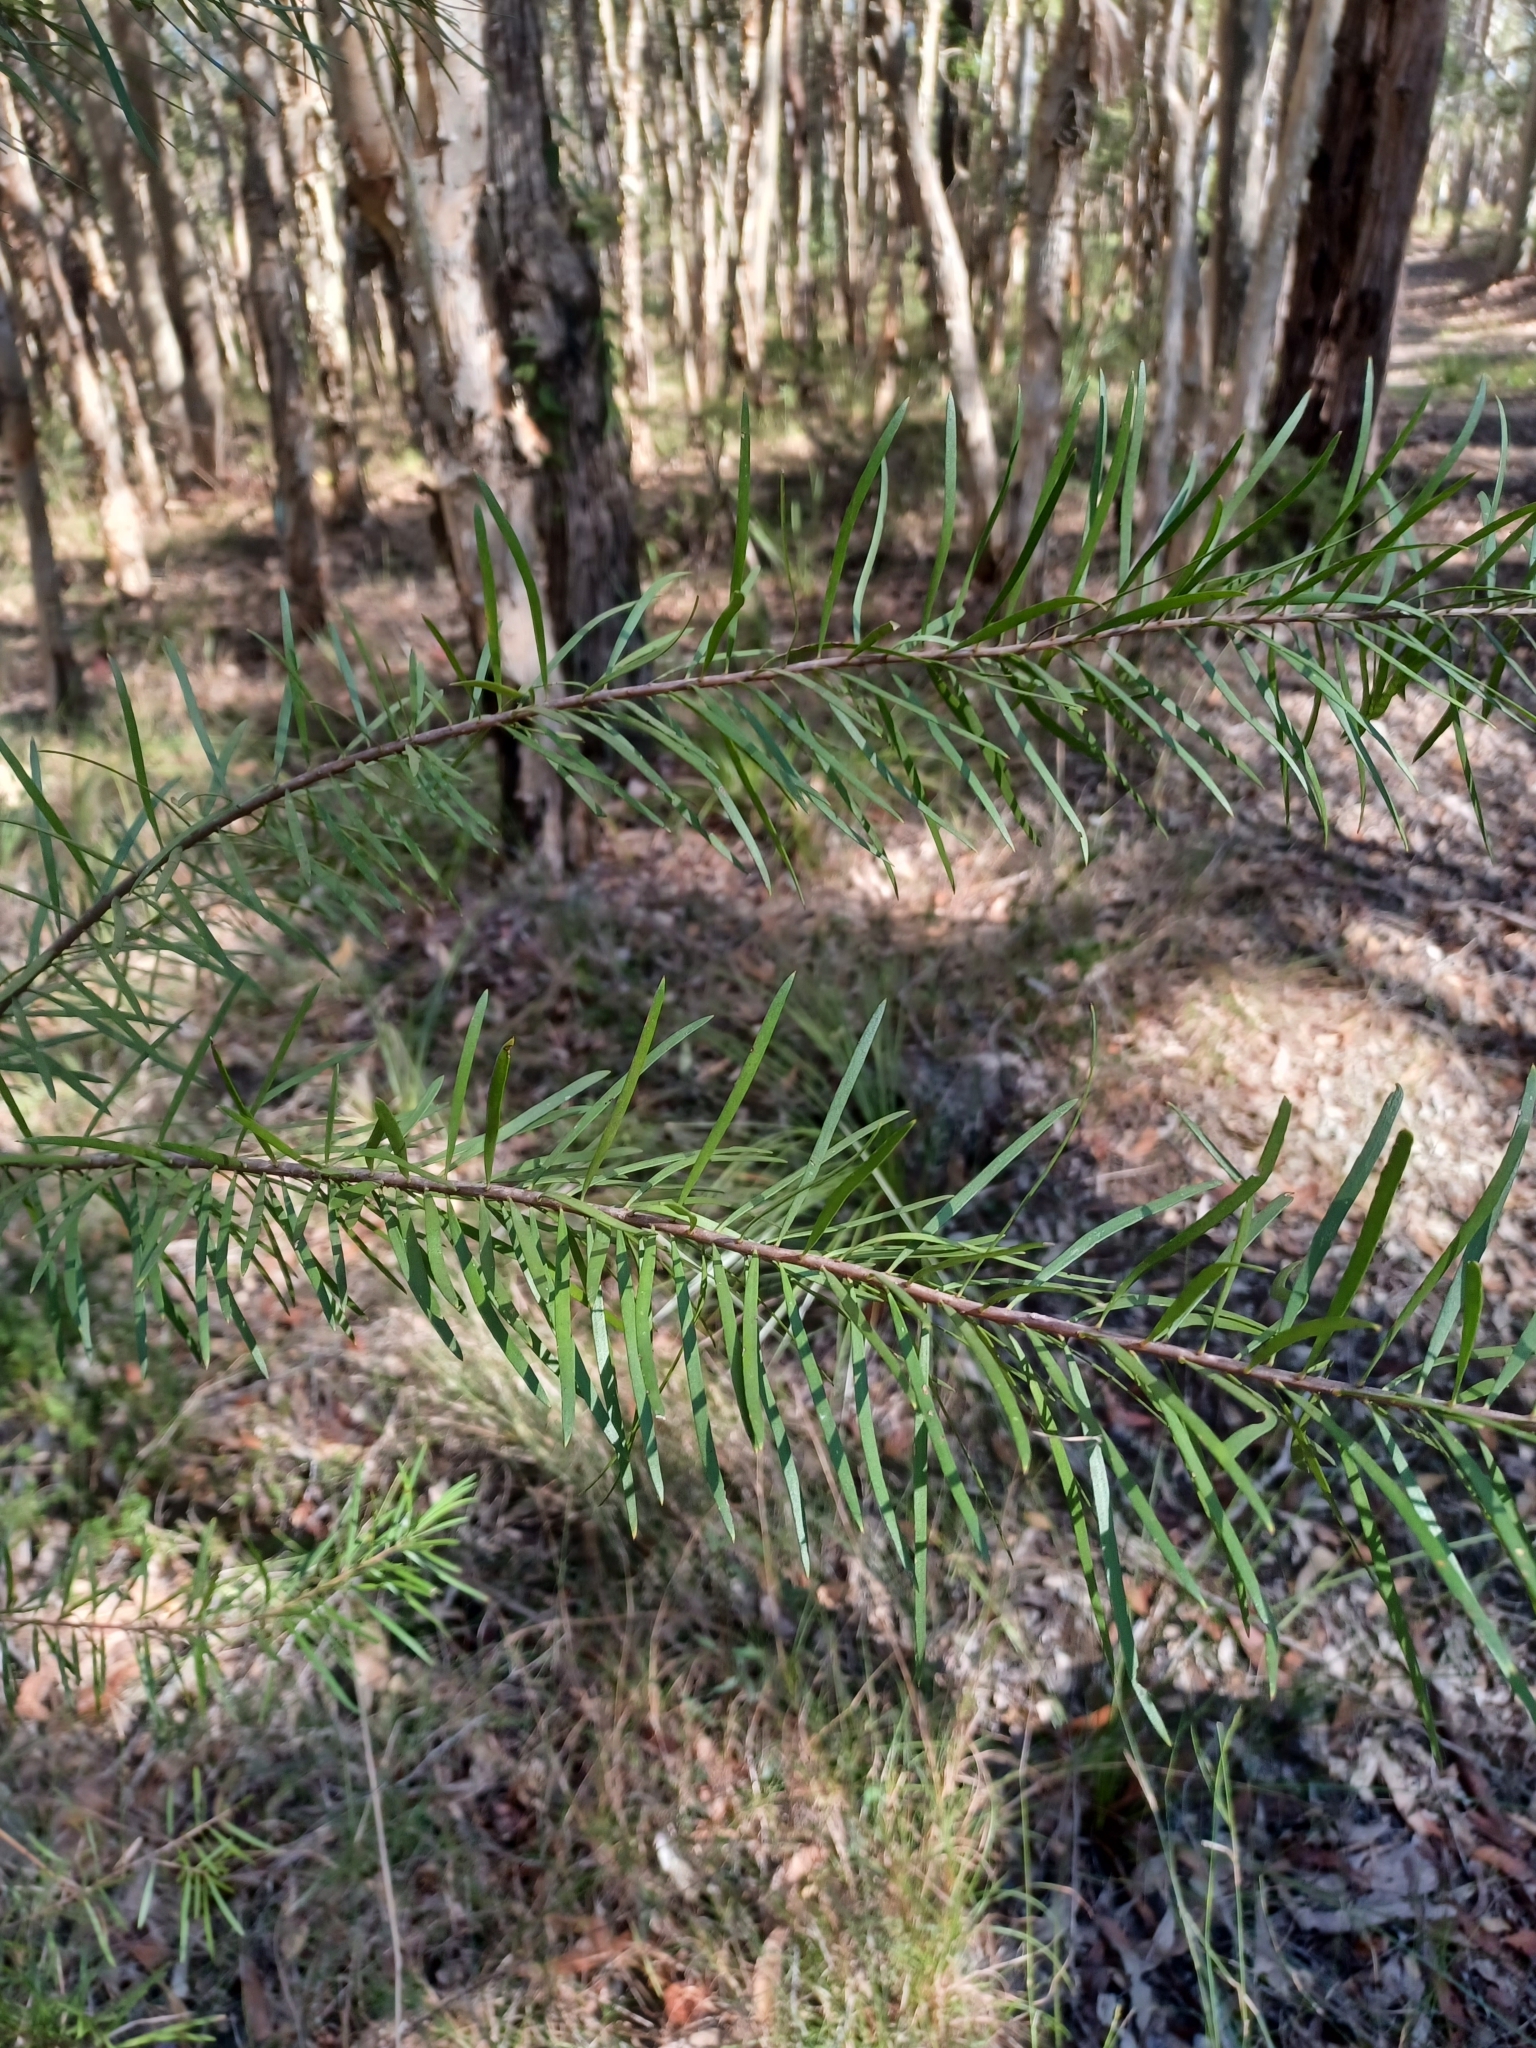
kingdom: Plantae
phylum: Tracheophyta
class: Magnoliopsida
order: Proteales
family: Proteaceae
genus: Persoonia
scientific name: Persoonia linearis
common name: Narrow-leaf geebung
